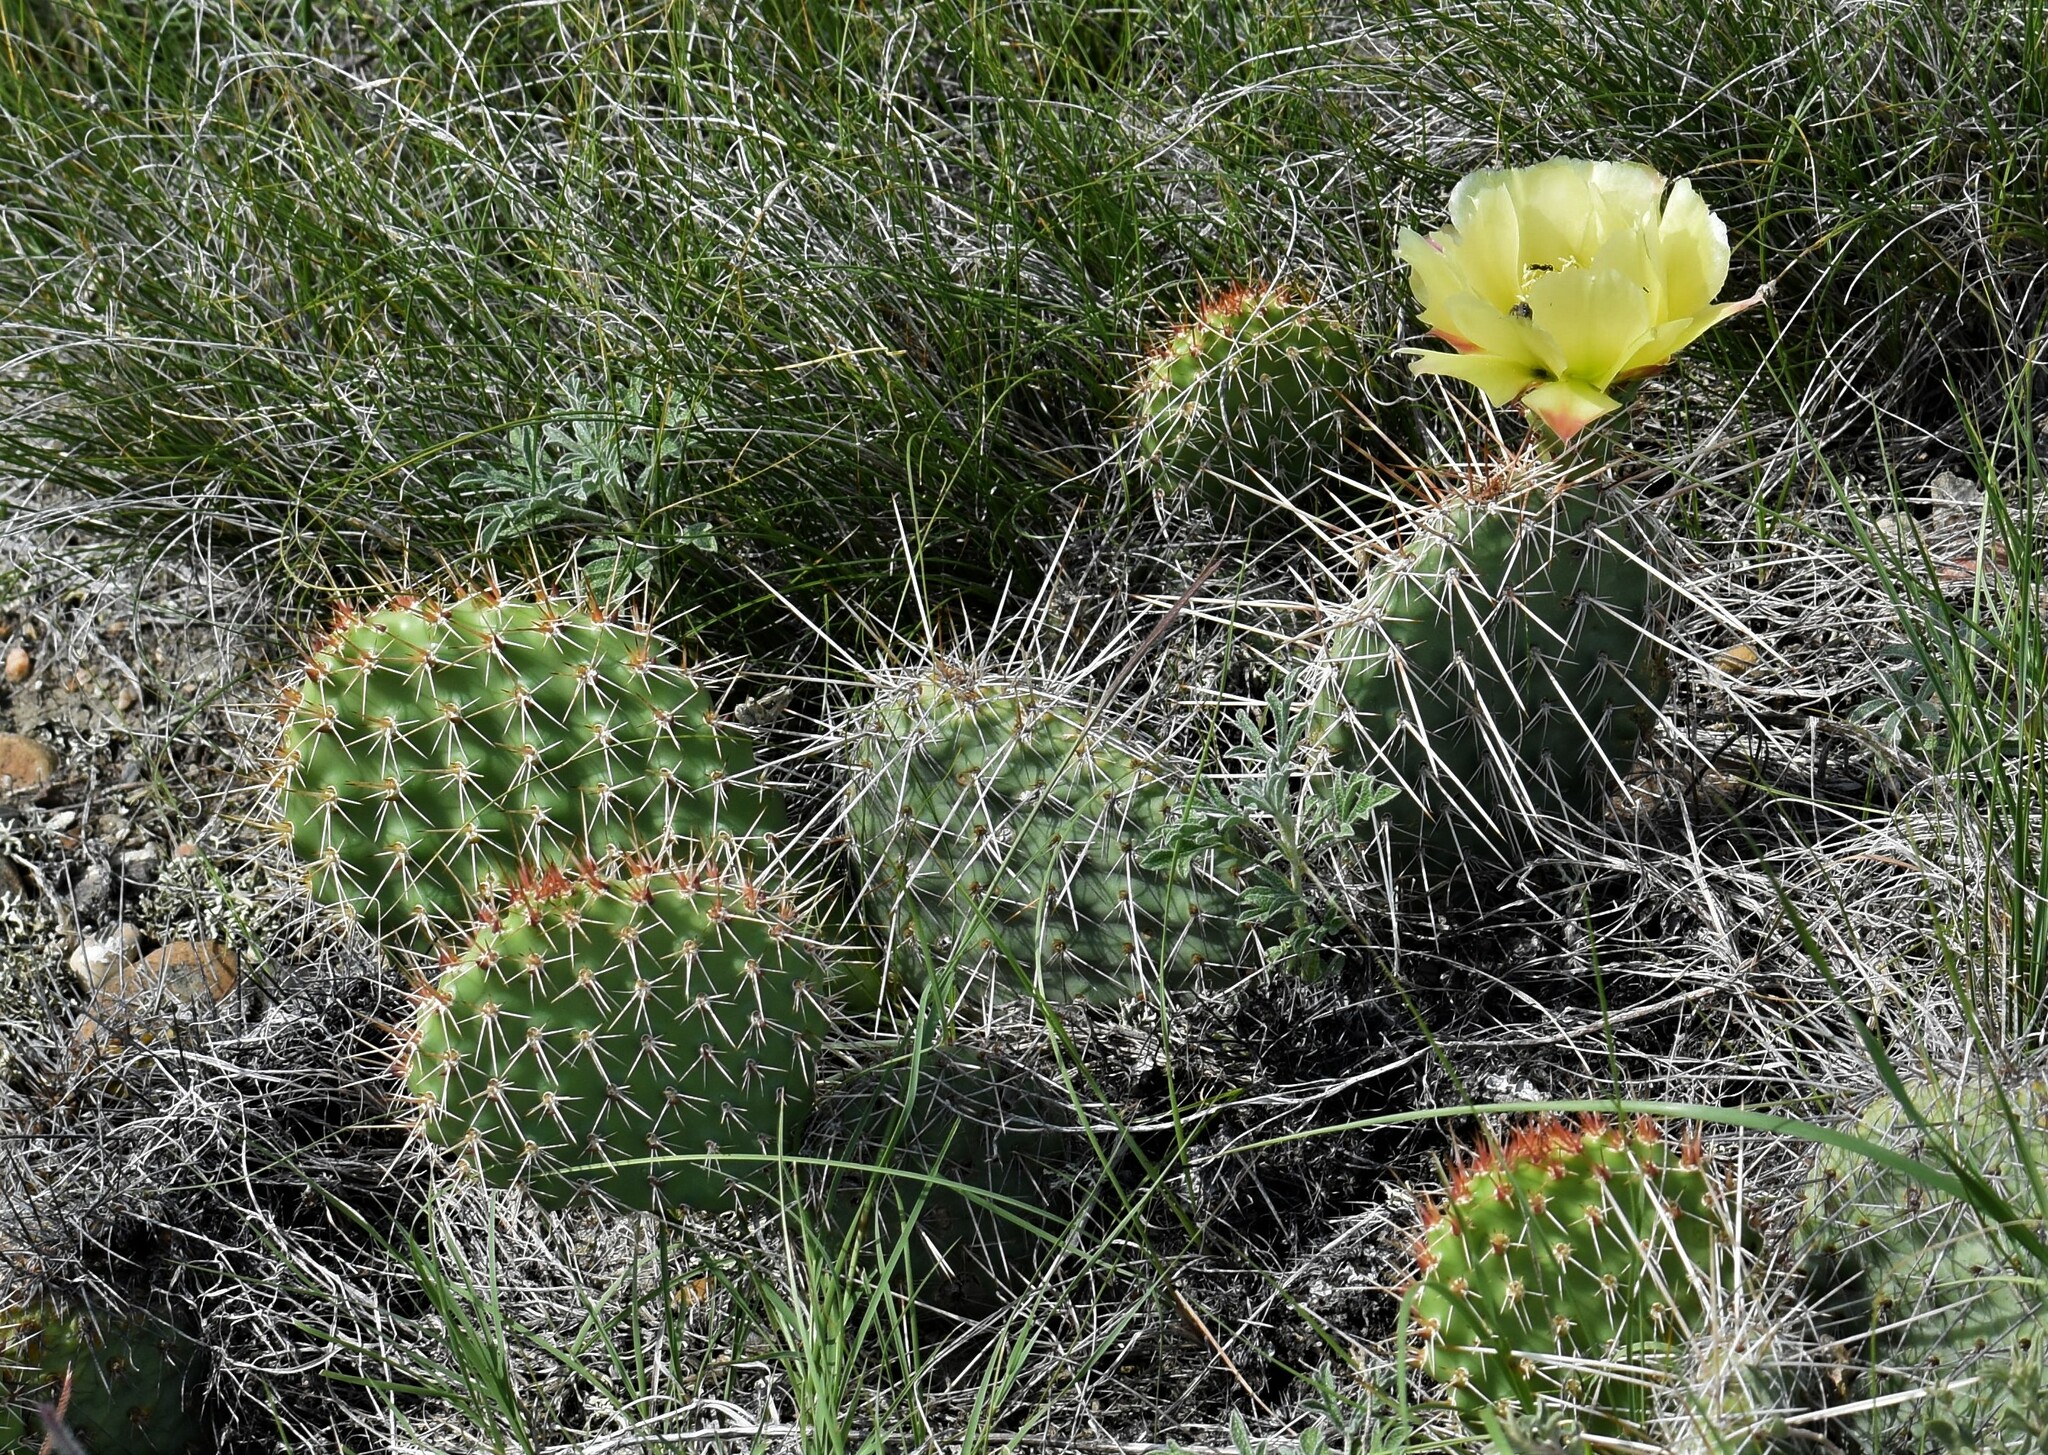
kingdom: Plantae
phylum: Tracheophyta
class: Magnoliopsida
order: Caryophyllales
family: Cactaceae
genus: Opuntia
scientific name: Opuntia polyacantha
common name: Plains prickly-pear
